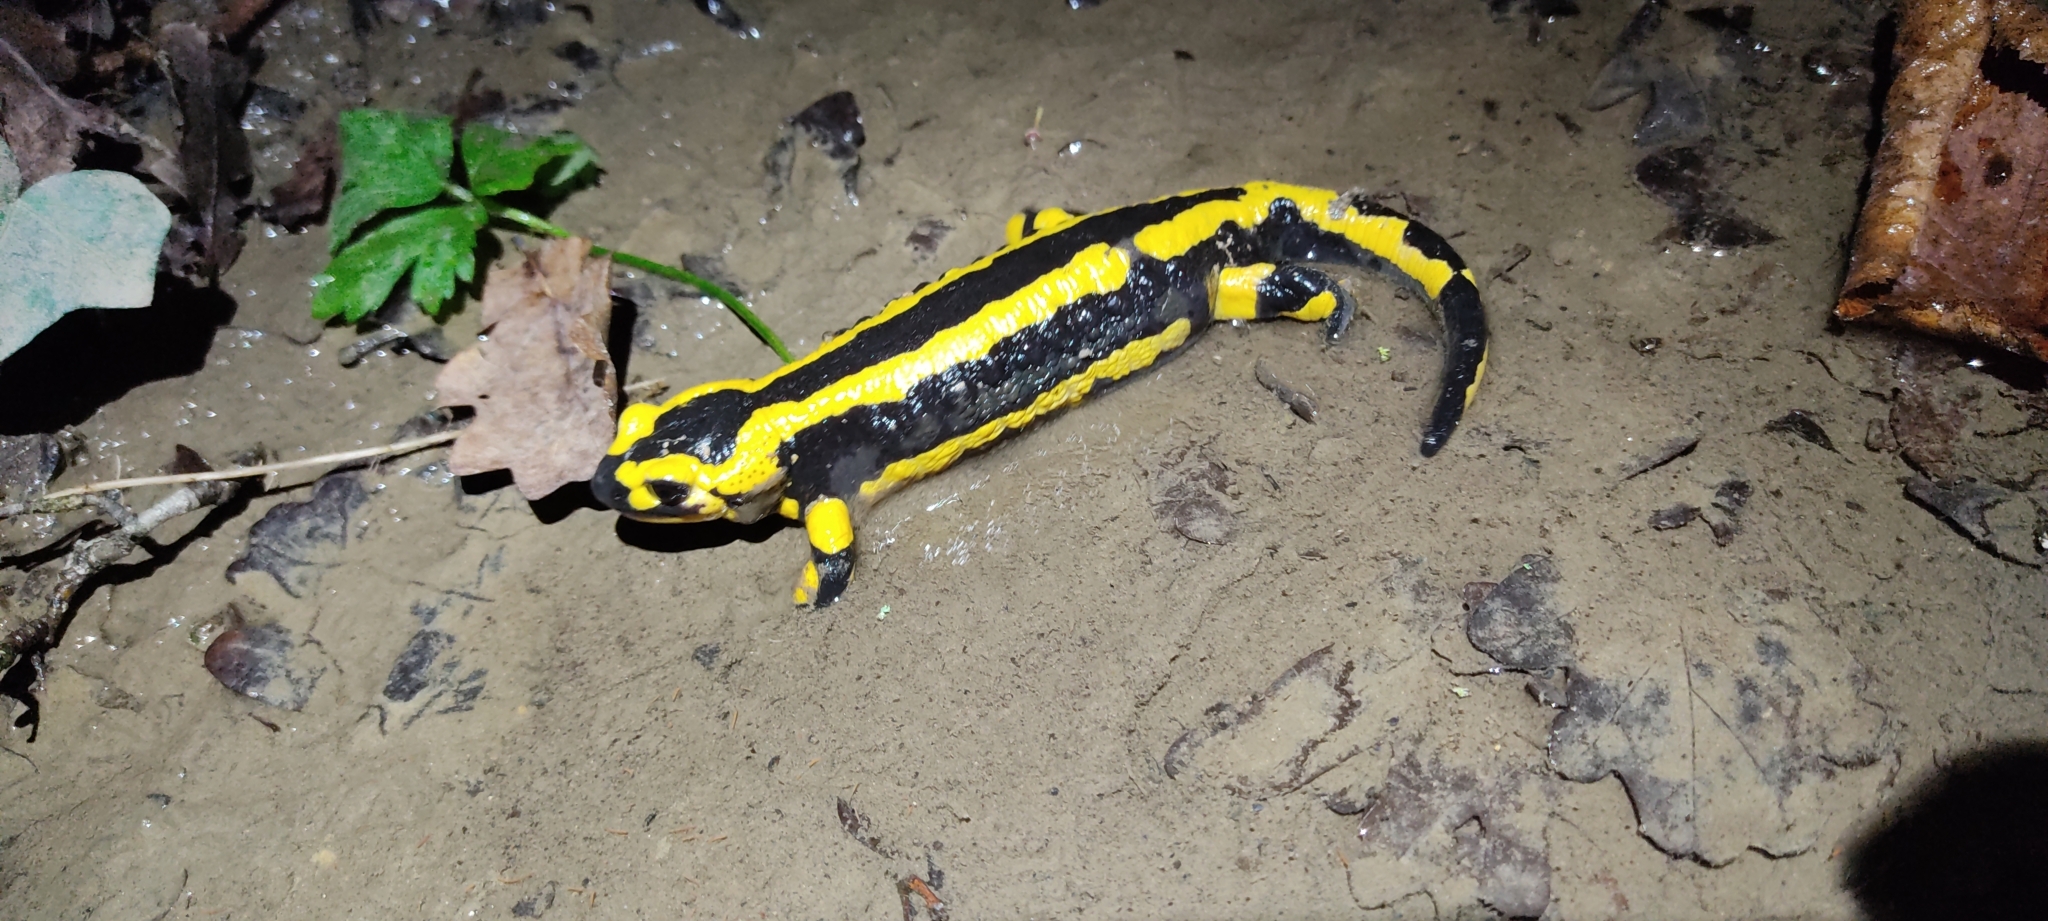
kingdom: Animalia
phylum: Chordata
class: Amphibia
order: Caudata
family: Salamandridae
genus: Salamandra
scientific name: Salamandra salamandra
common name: Fire salamander
